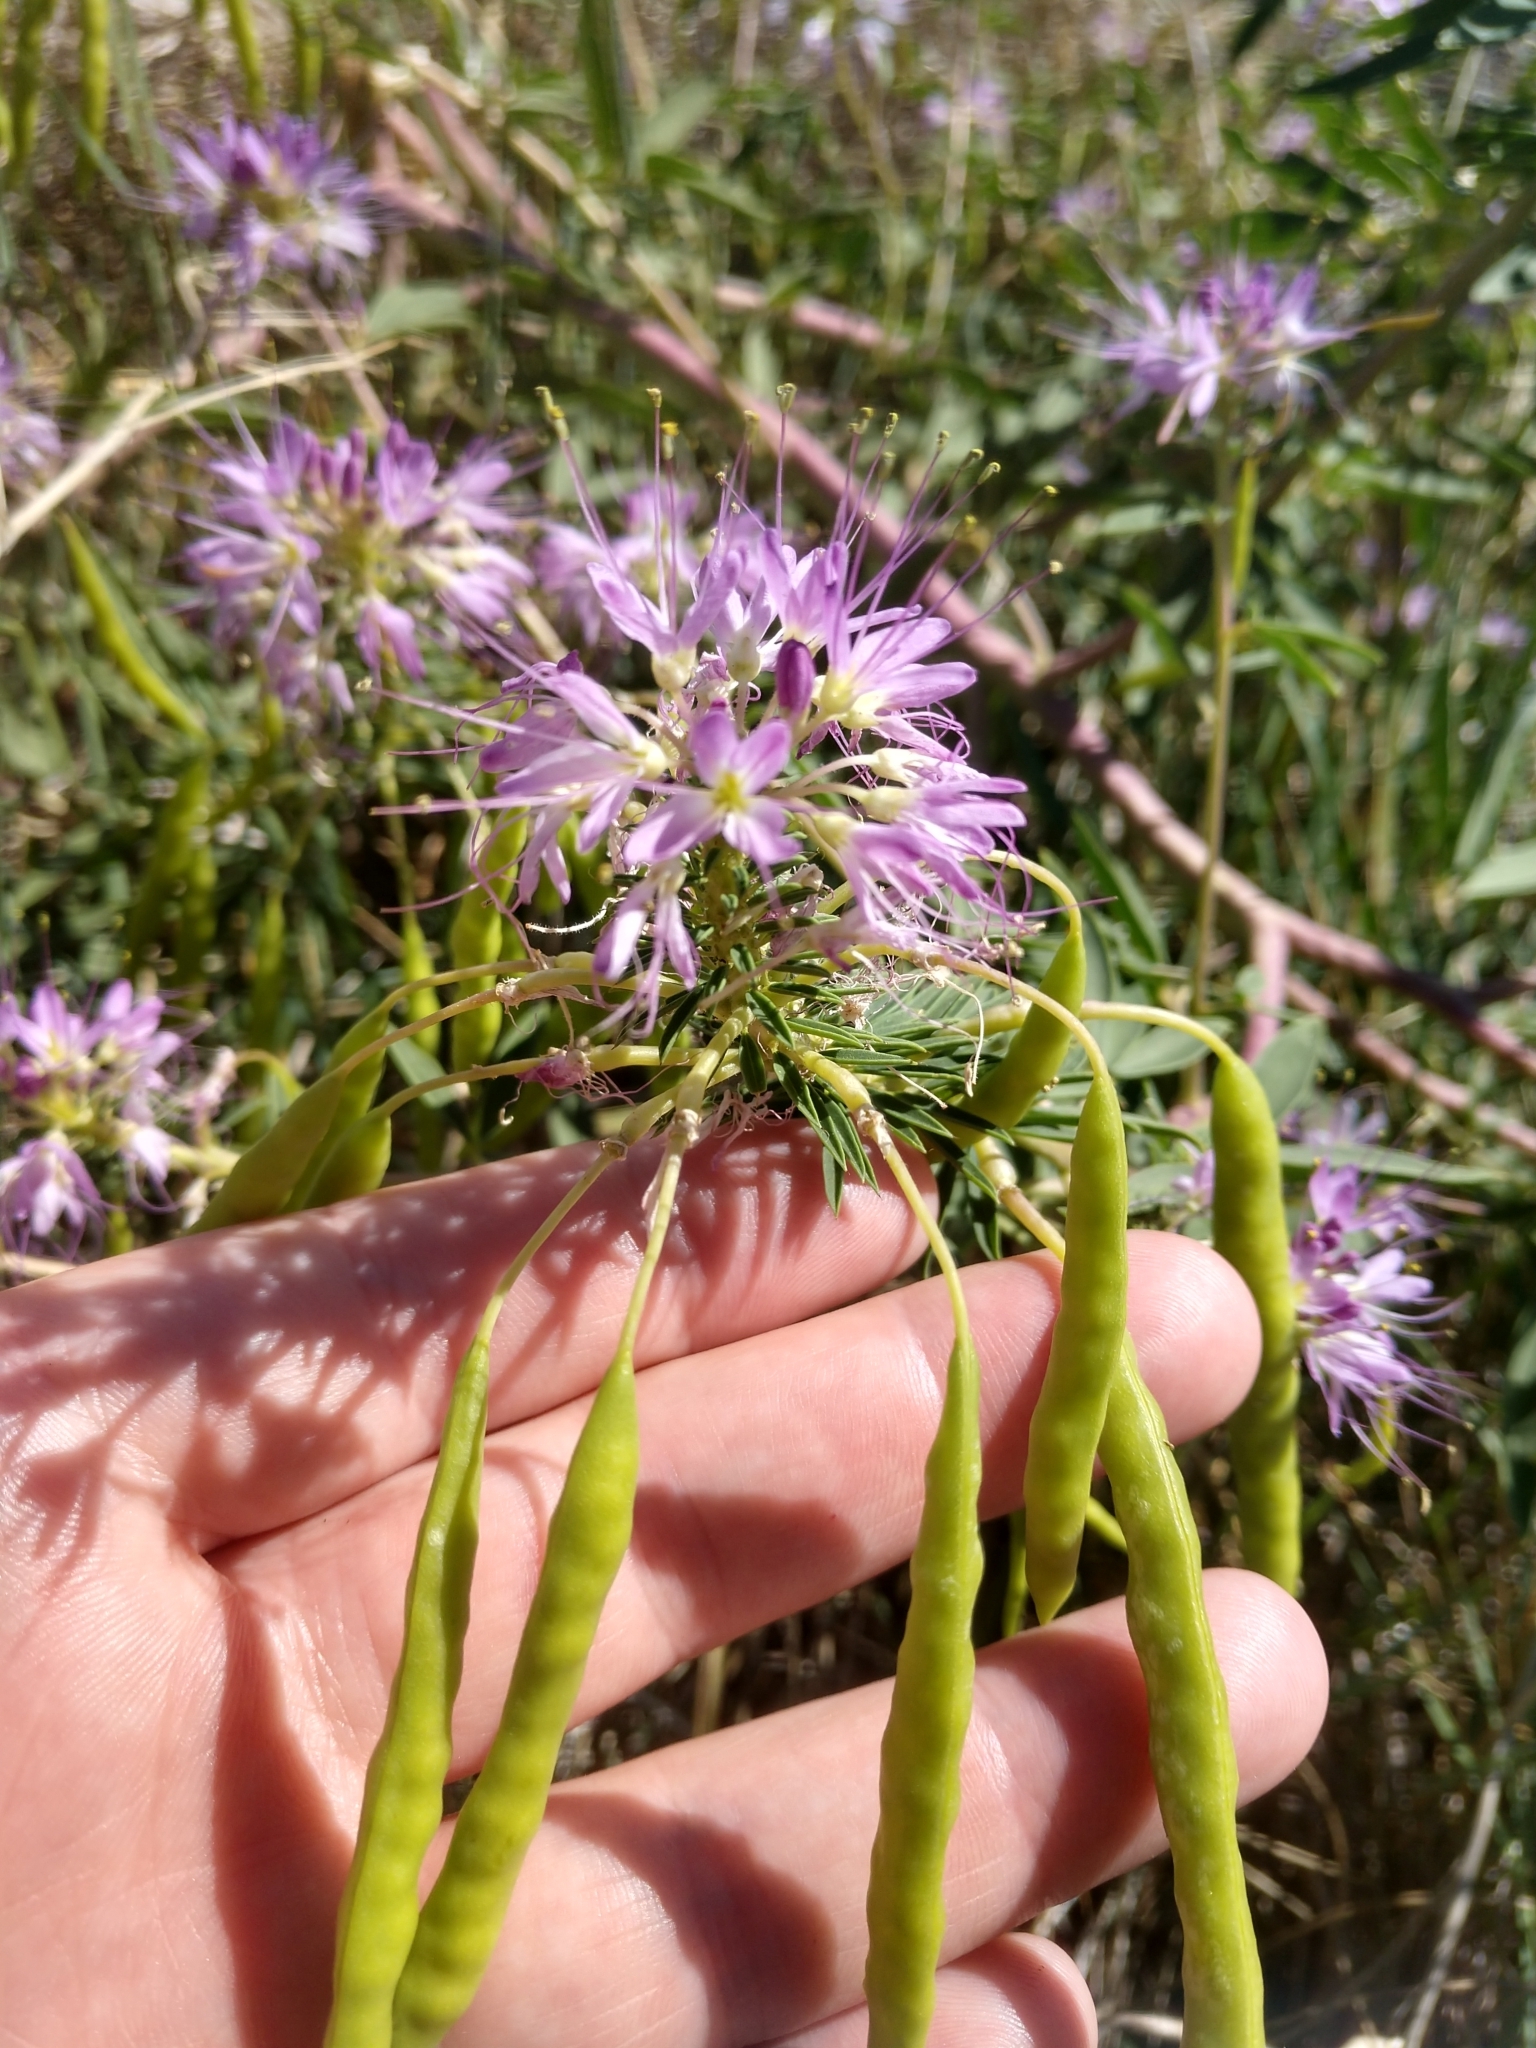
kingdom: Plantae
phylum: Tracheophyta
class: Magnoliopsida
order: Brassicales
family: Cleomaceae
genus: Cleomella
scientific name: Cleomella serrulata
